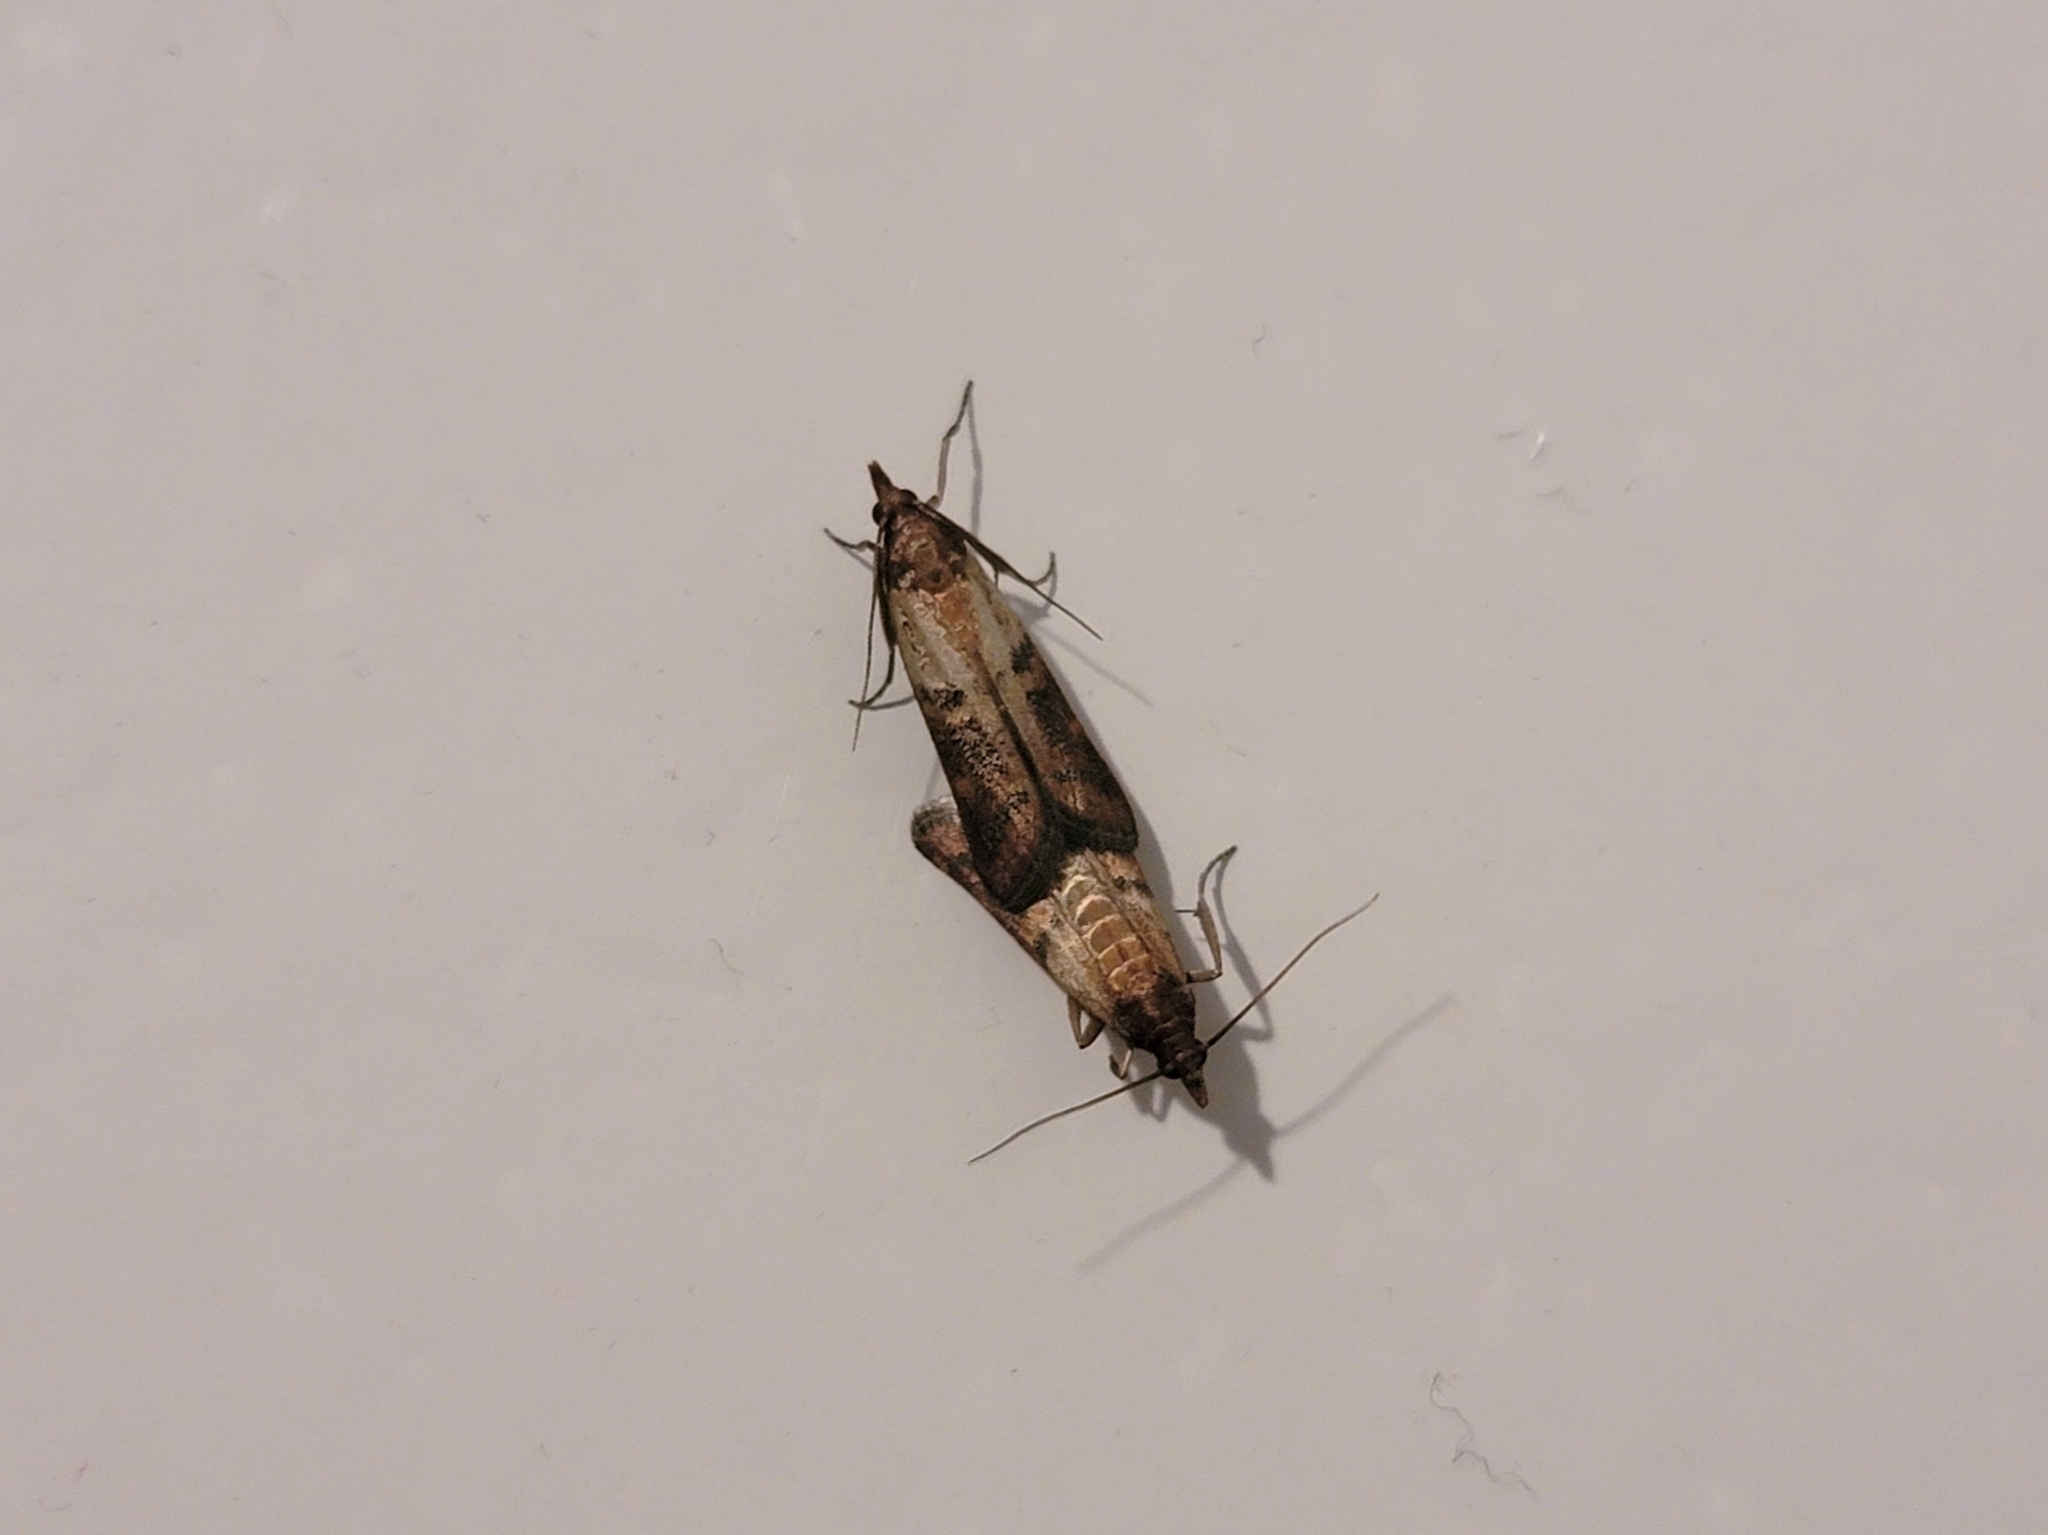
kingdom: Animalia
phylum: Arthropoda
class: Insecta
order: Lepidoptera
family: Pyralidae
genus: Plodia
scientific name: Plodia interpunctella
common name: Indian meal moth
